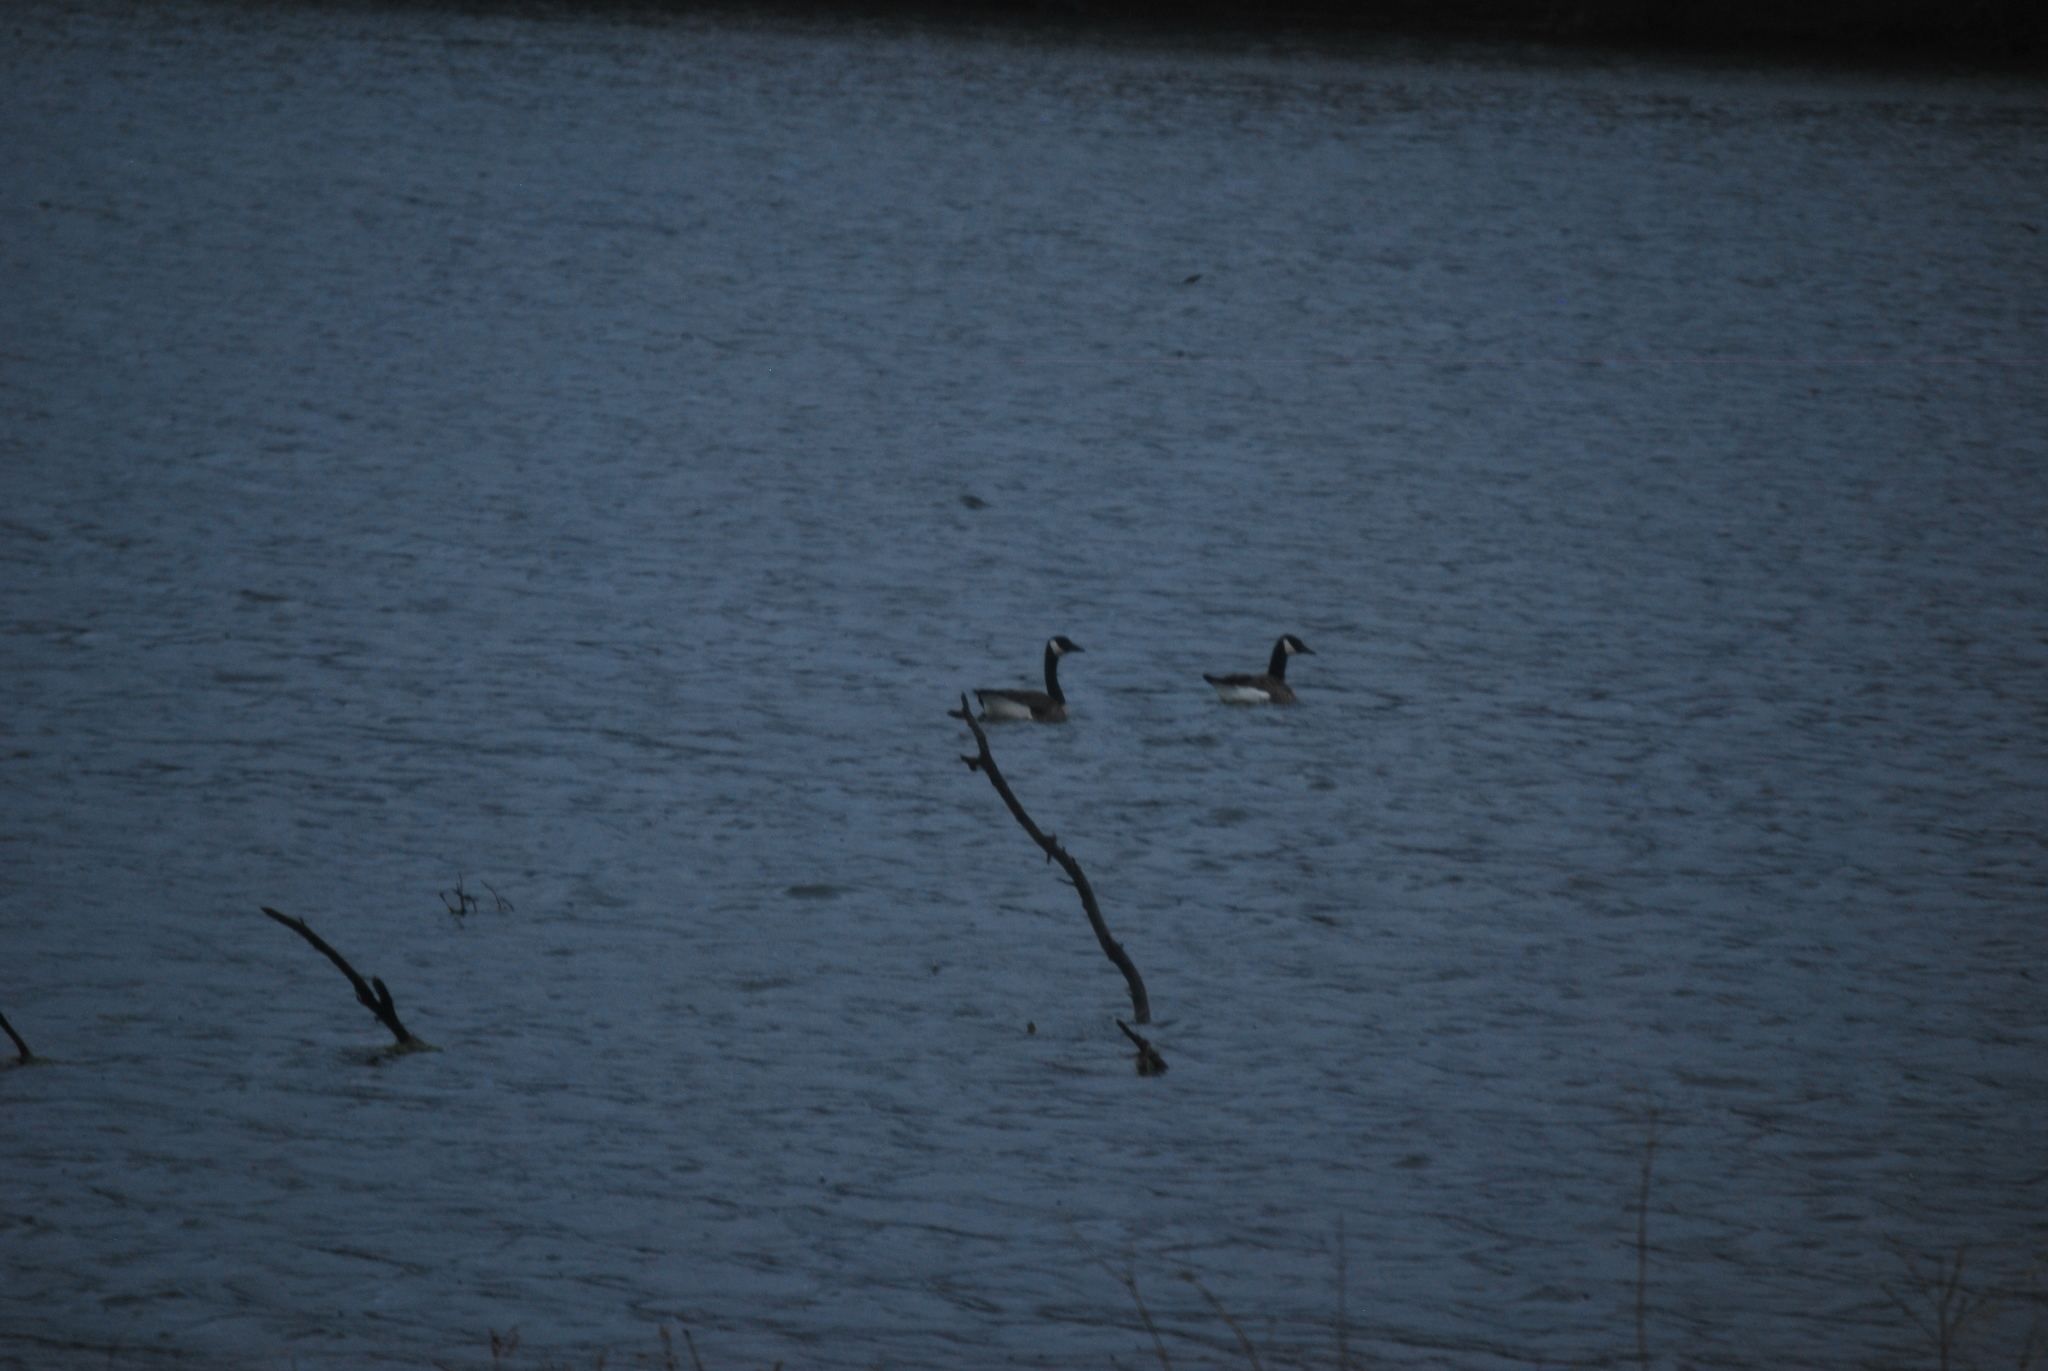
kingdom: Animalia
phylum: Chordata
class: Aves
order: Anseriformes
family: Anatidae
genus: Branta
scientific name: Branta canadensis
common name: Canada goose
